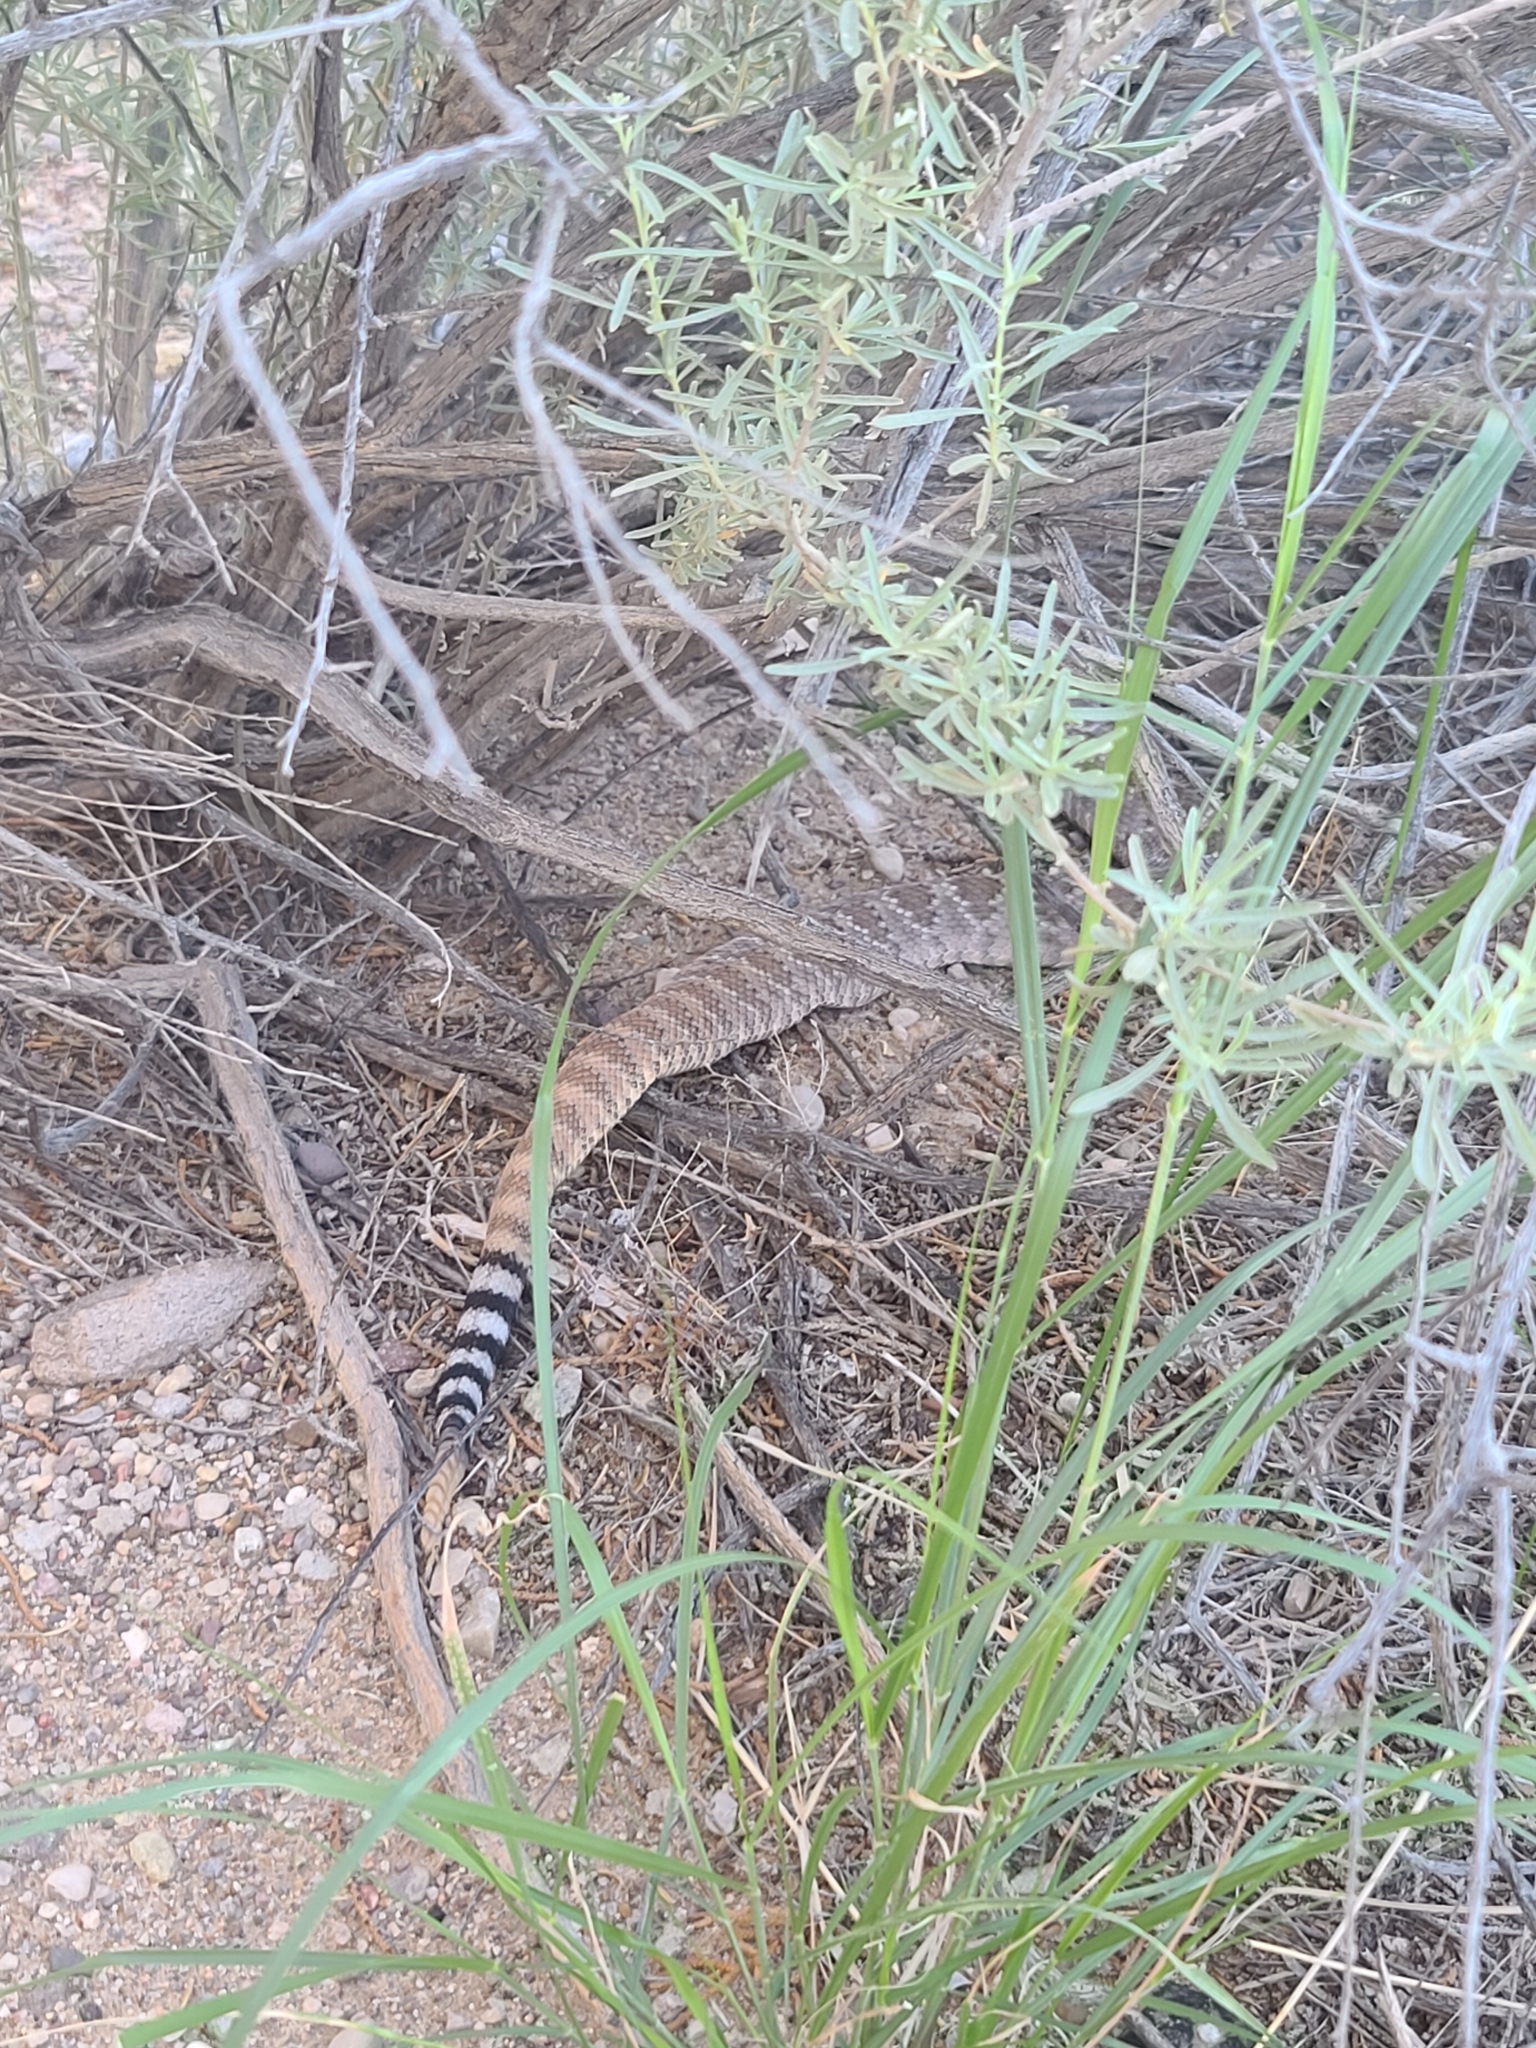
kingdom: Animalia
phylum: Chordata
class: Squamata
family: Viperidae
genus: Crotalus
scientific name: Crotalus atrox
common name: Western diamond-backed rattlesnake
